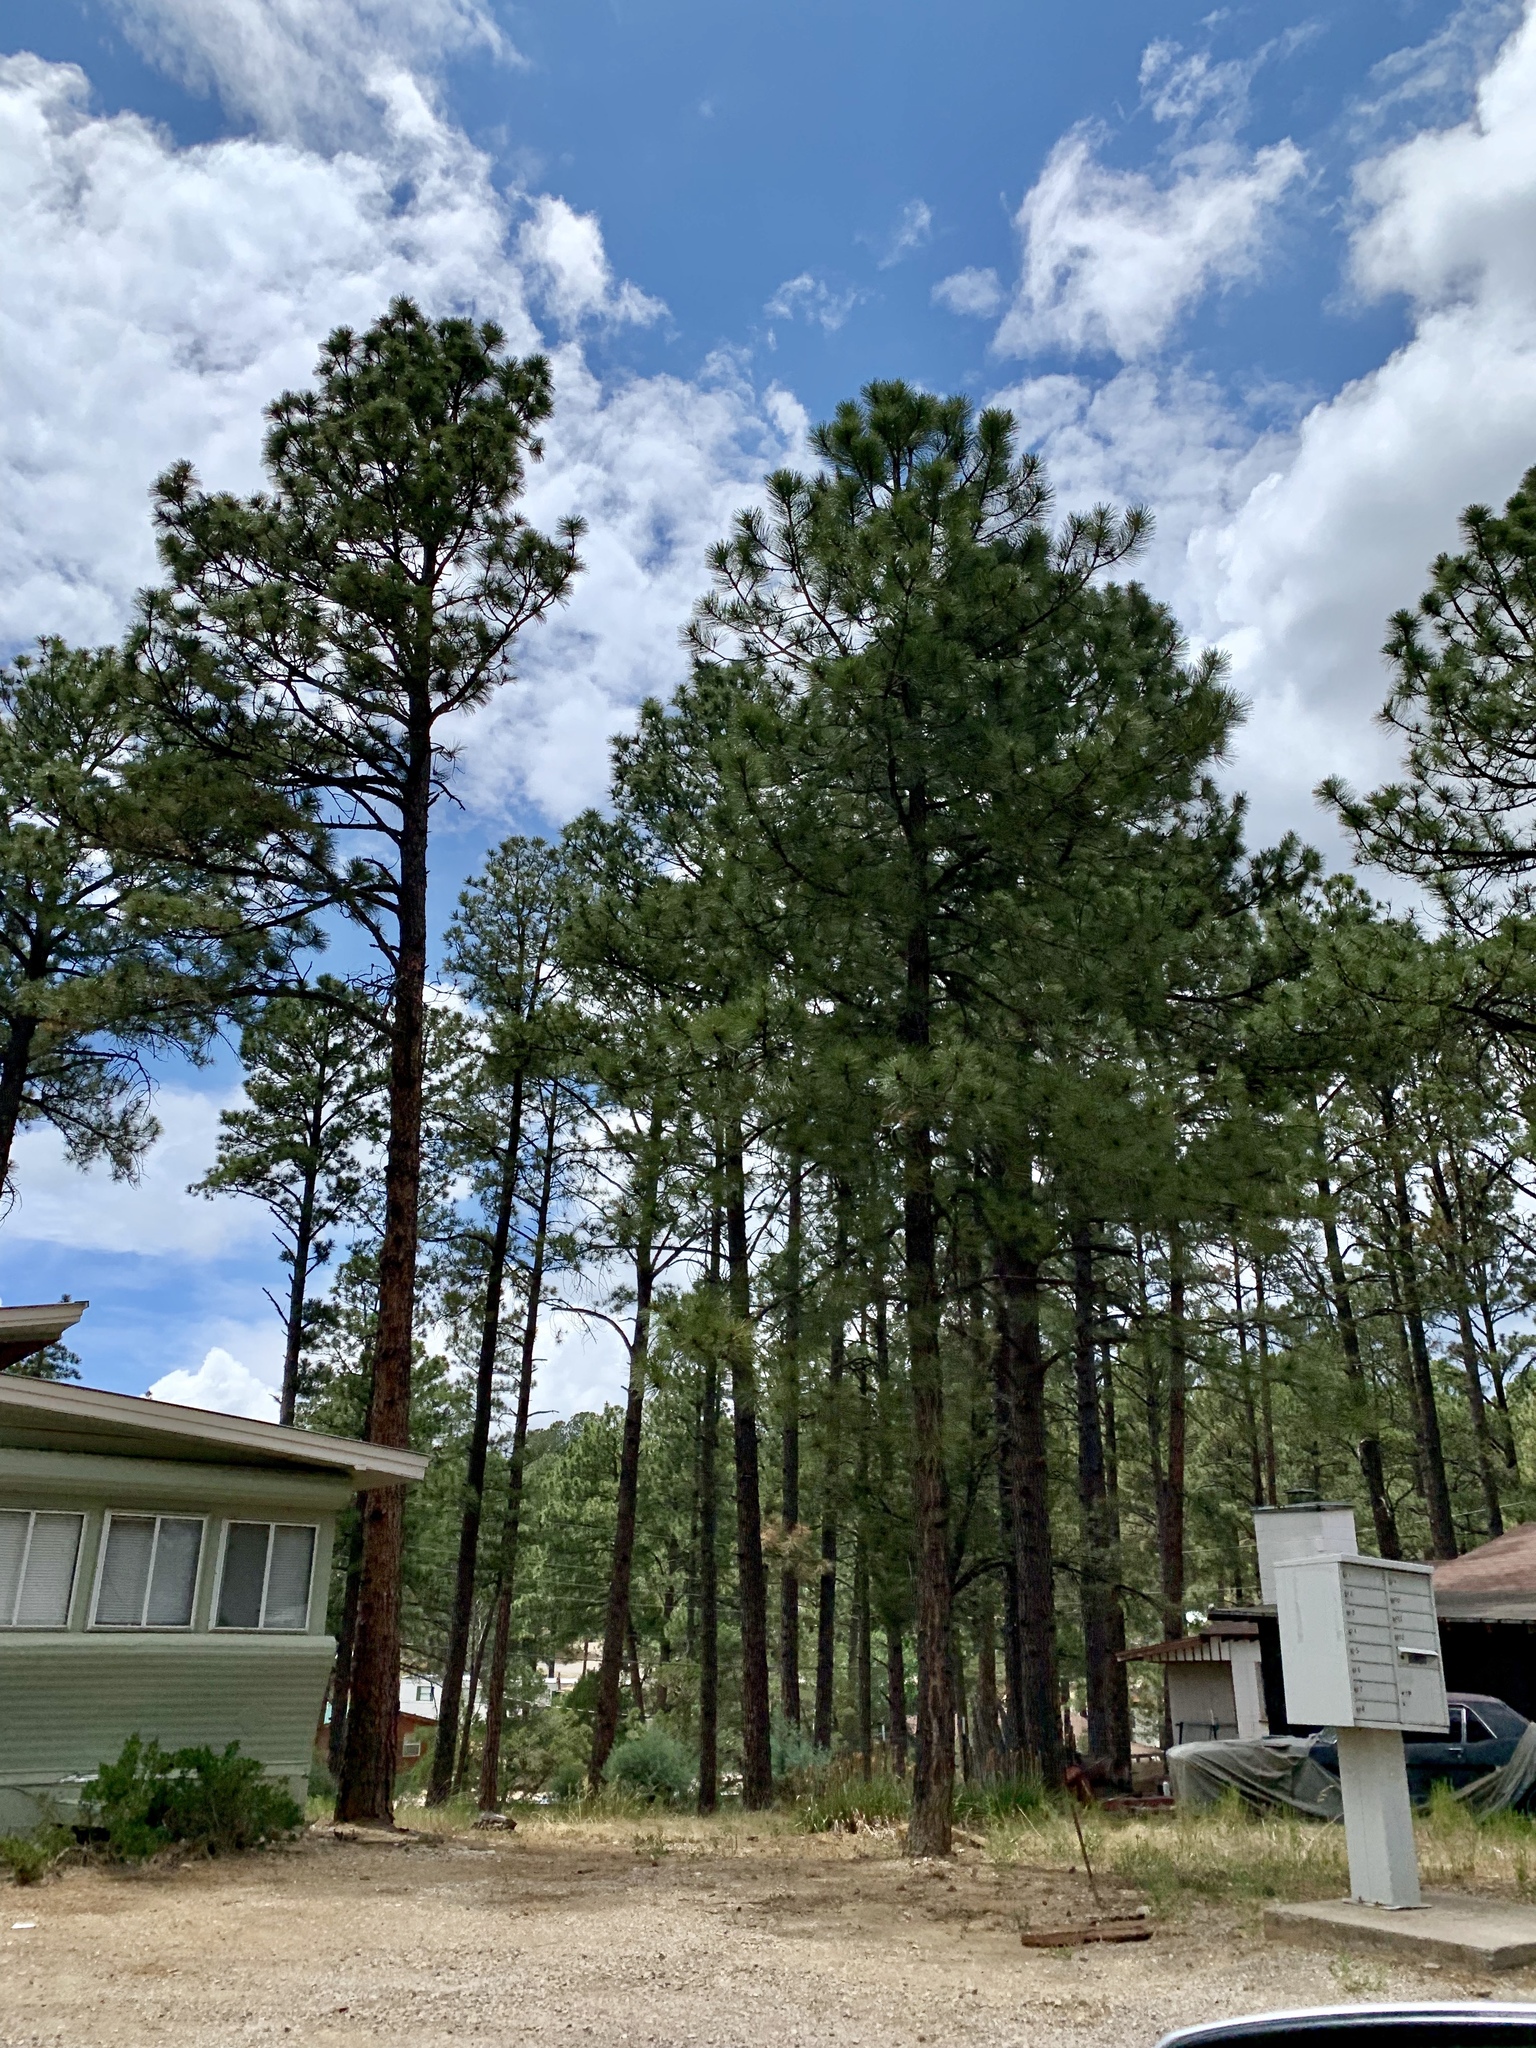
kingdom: Plantae
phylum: Tracheophyta
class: Pinopsida
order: Pinales
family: Pinaceae
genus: Pinus
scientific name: Pinus ponderosa
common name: Western yellow-pine
